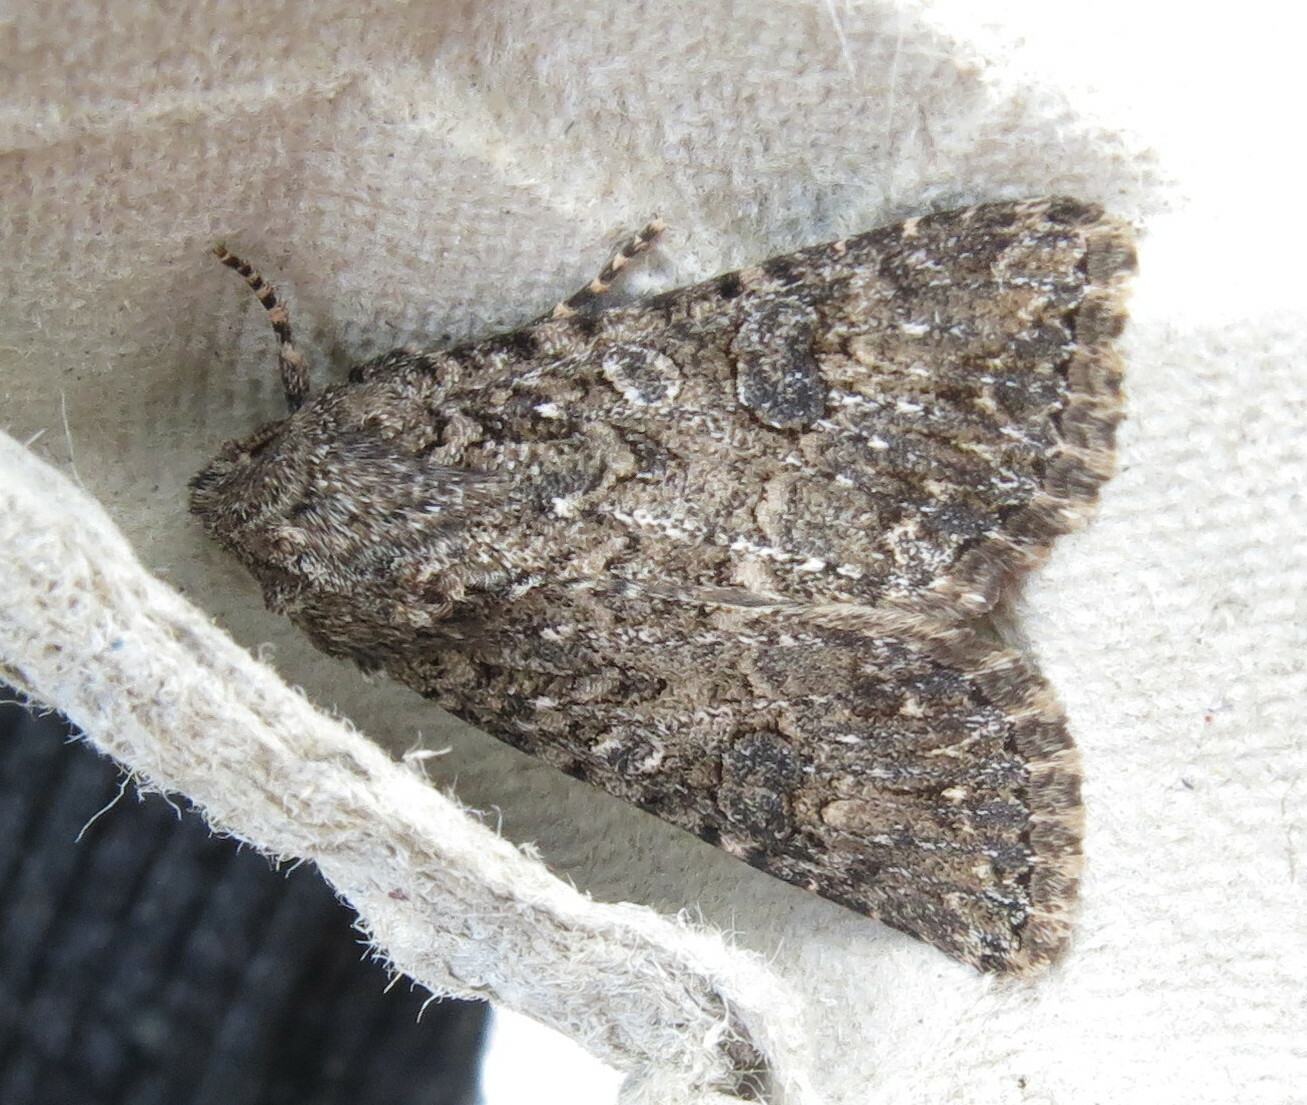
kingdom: Animalia
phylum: Arthropoda
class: Insecta
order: Lepidoptera
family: Noctuidae
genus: Anarta
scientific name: Anarta trifolii
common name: Clover cutworm moth
